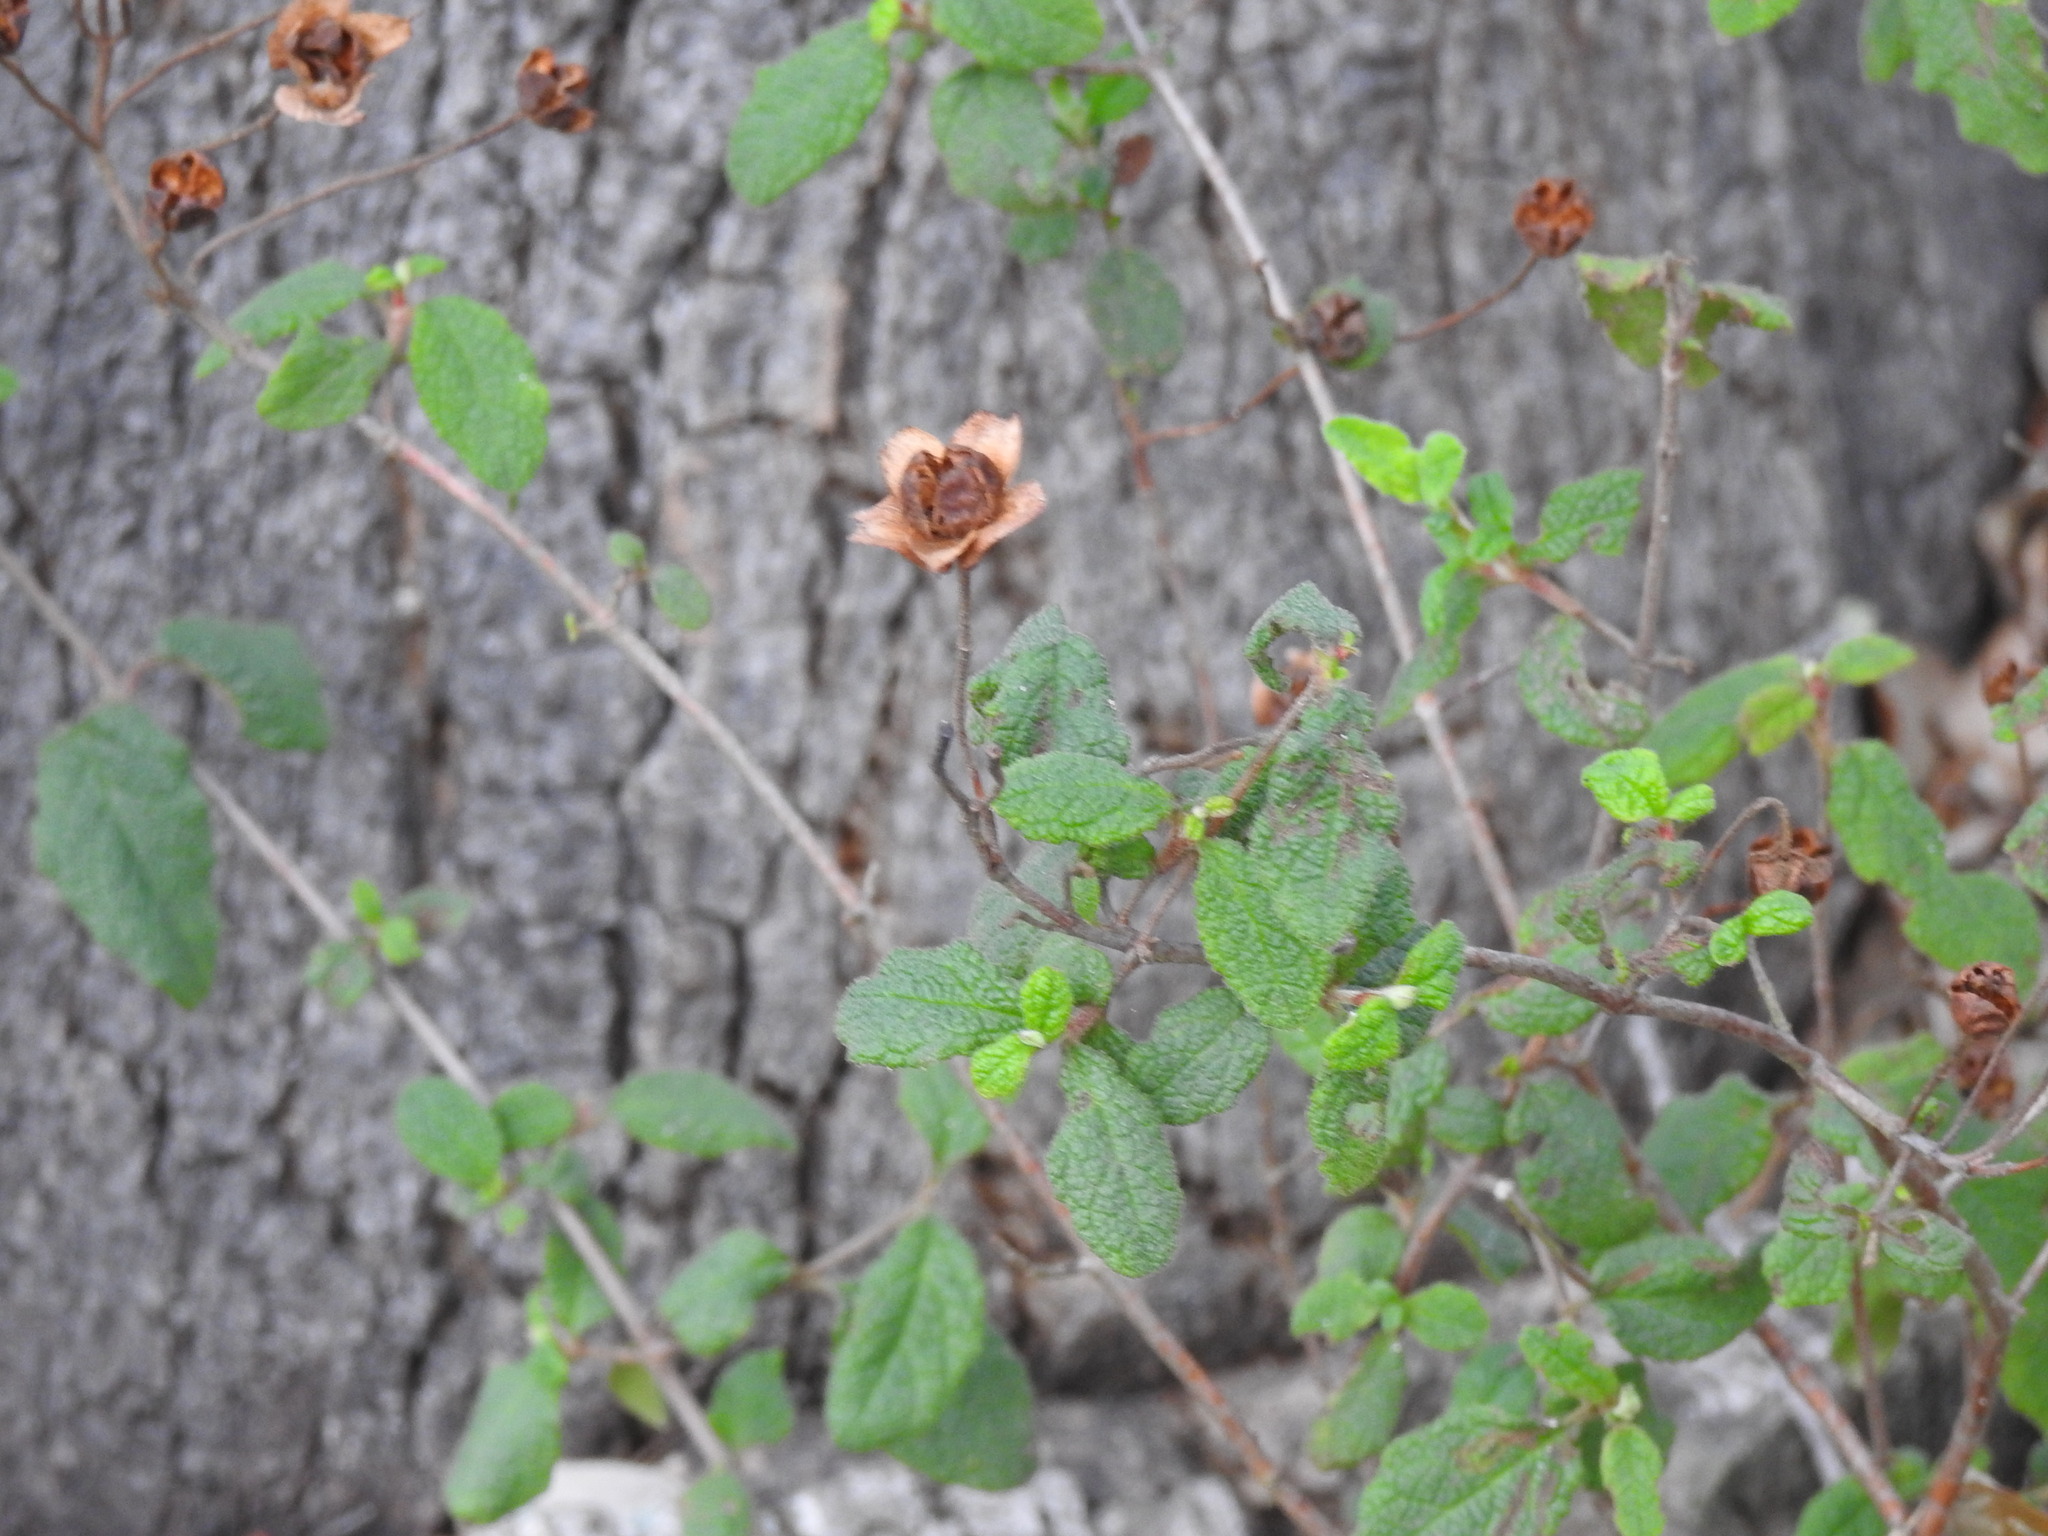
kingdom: Plantae
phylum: Tracheophyta
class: Magnoliopsida
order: Malvales
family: Cistaceae
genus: Cistus
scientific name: Cistus salviifolius
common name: Salvia cistus
